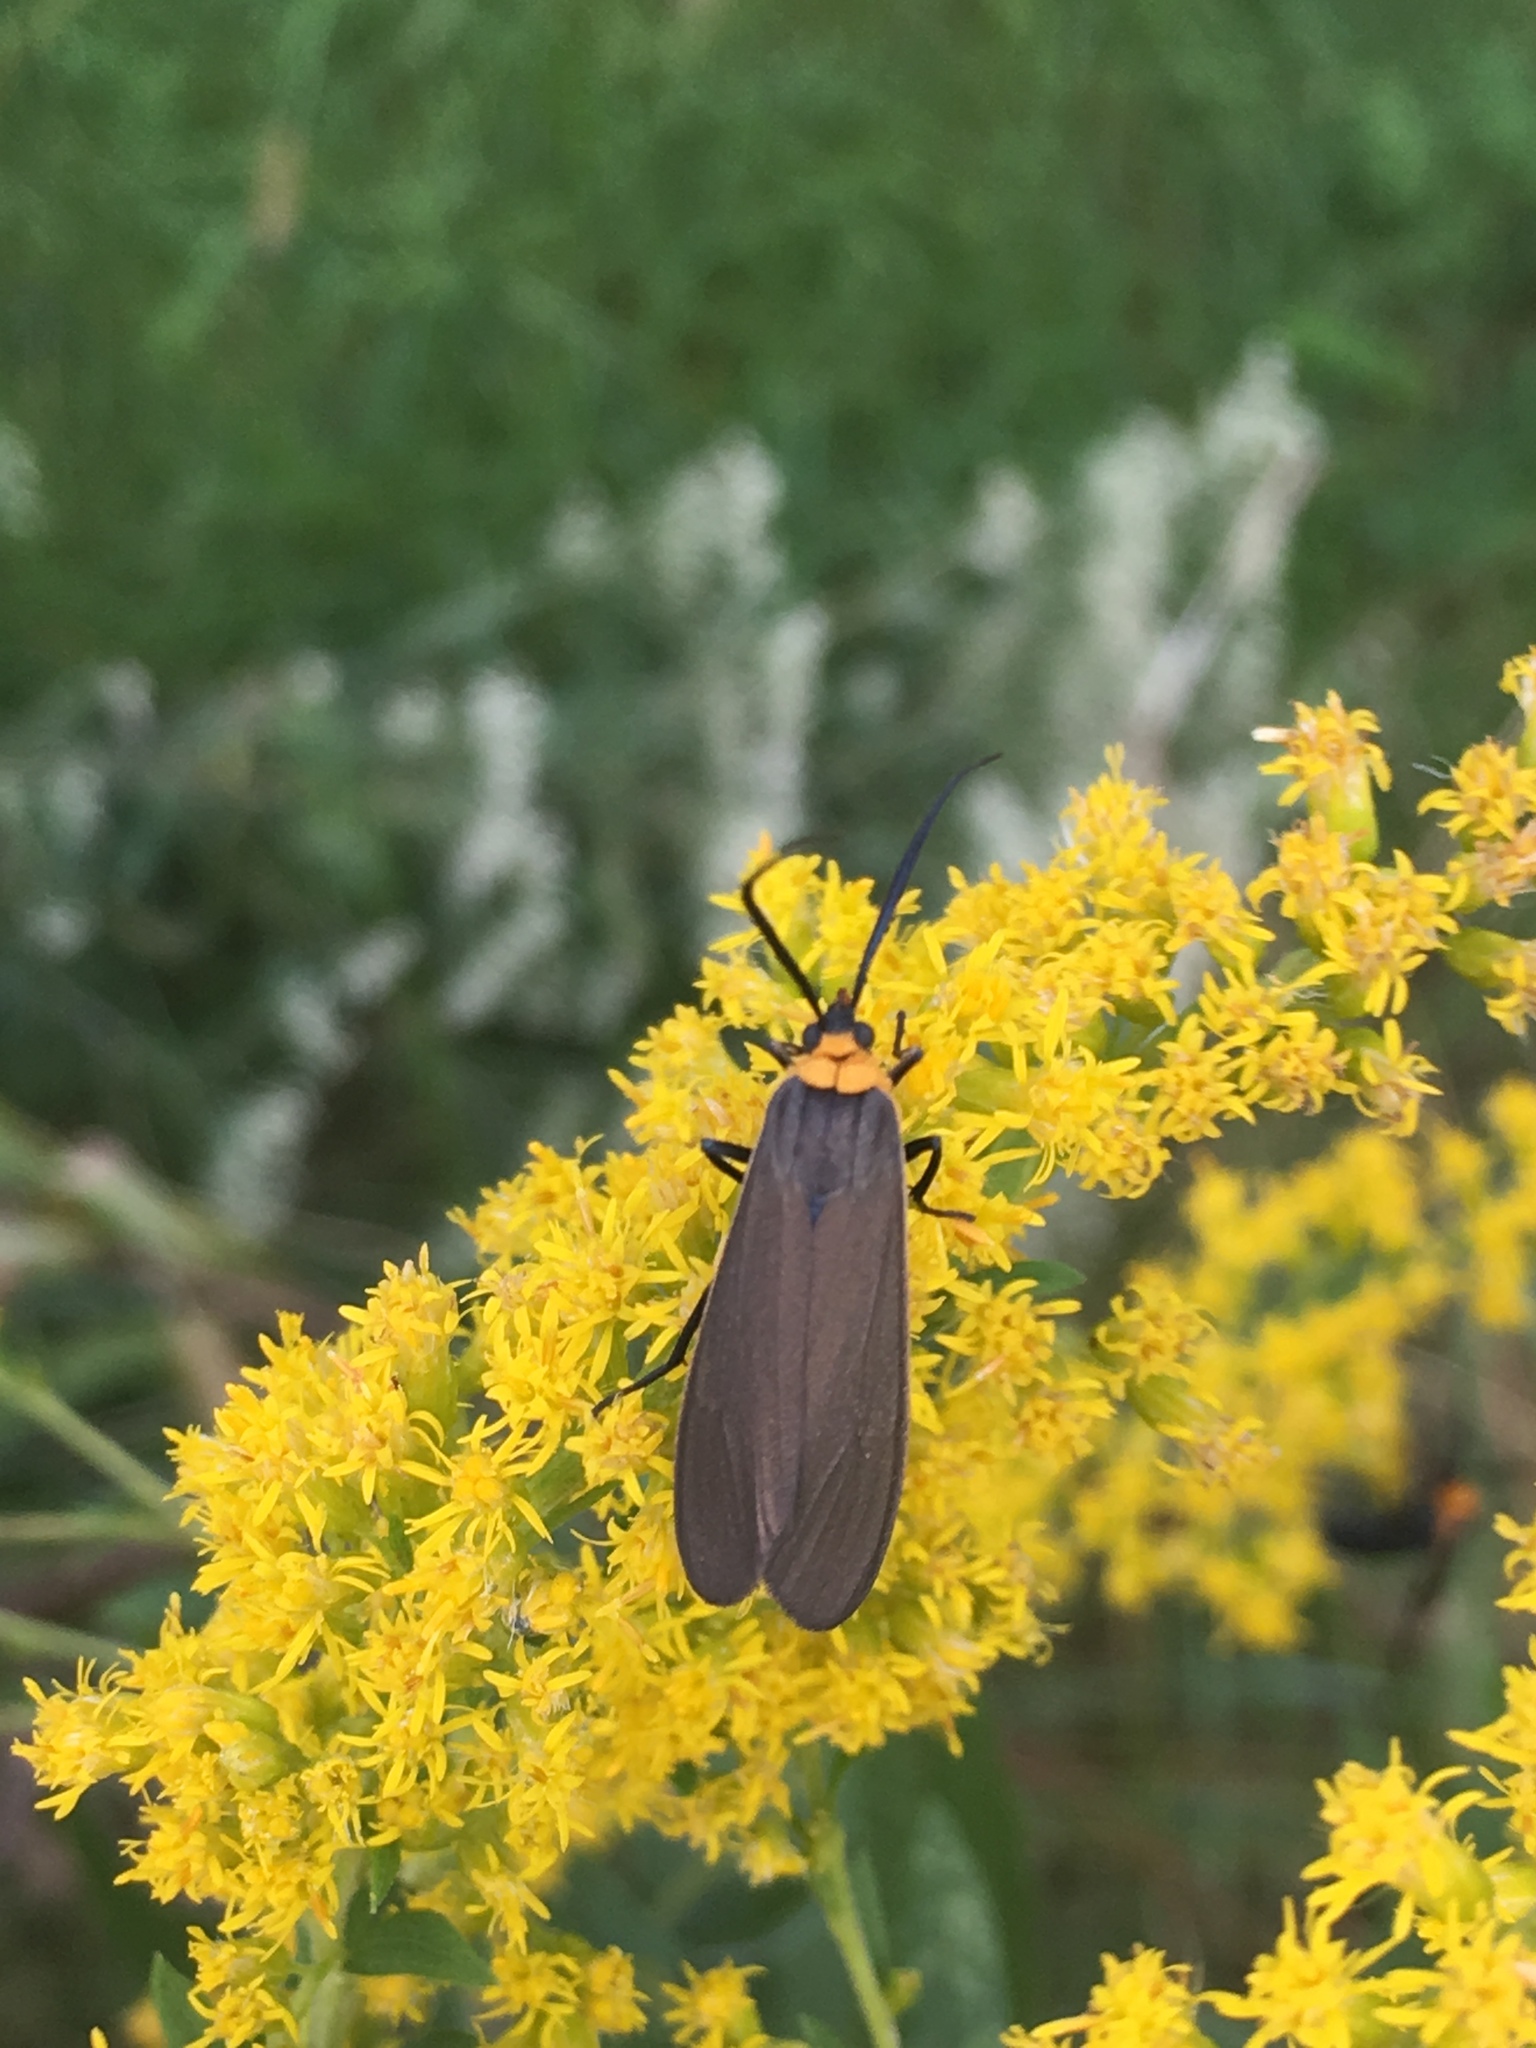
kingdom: Animalia
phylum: Arthropoda
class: Insecta
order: Lepidoptera
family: Erebidae
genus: Cisseps
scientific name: Cisseps fulvicollis
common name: Yellow-collared scape moth
